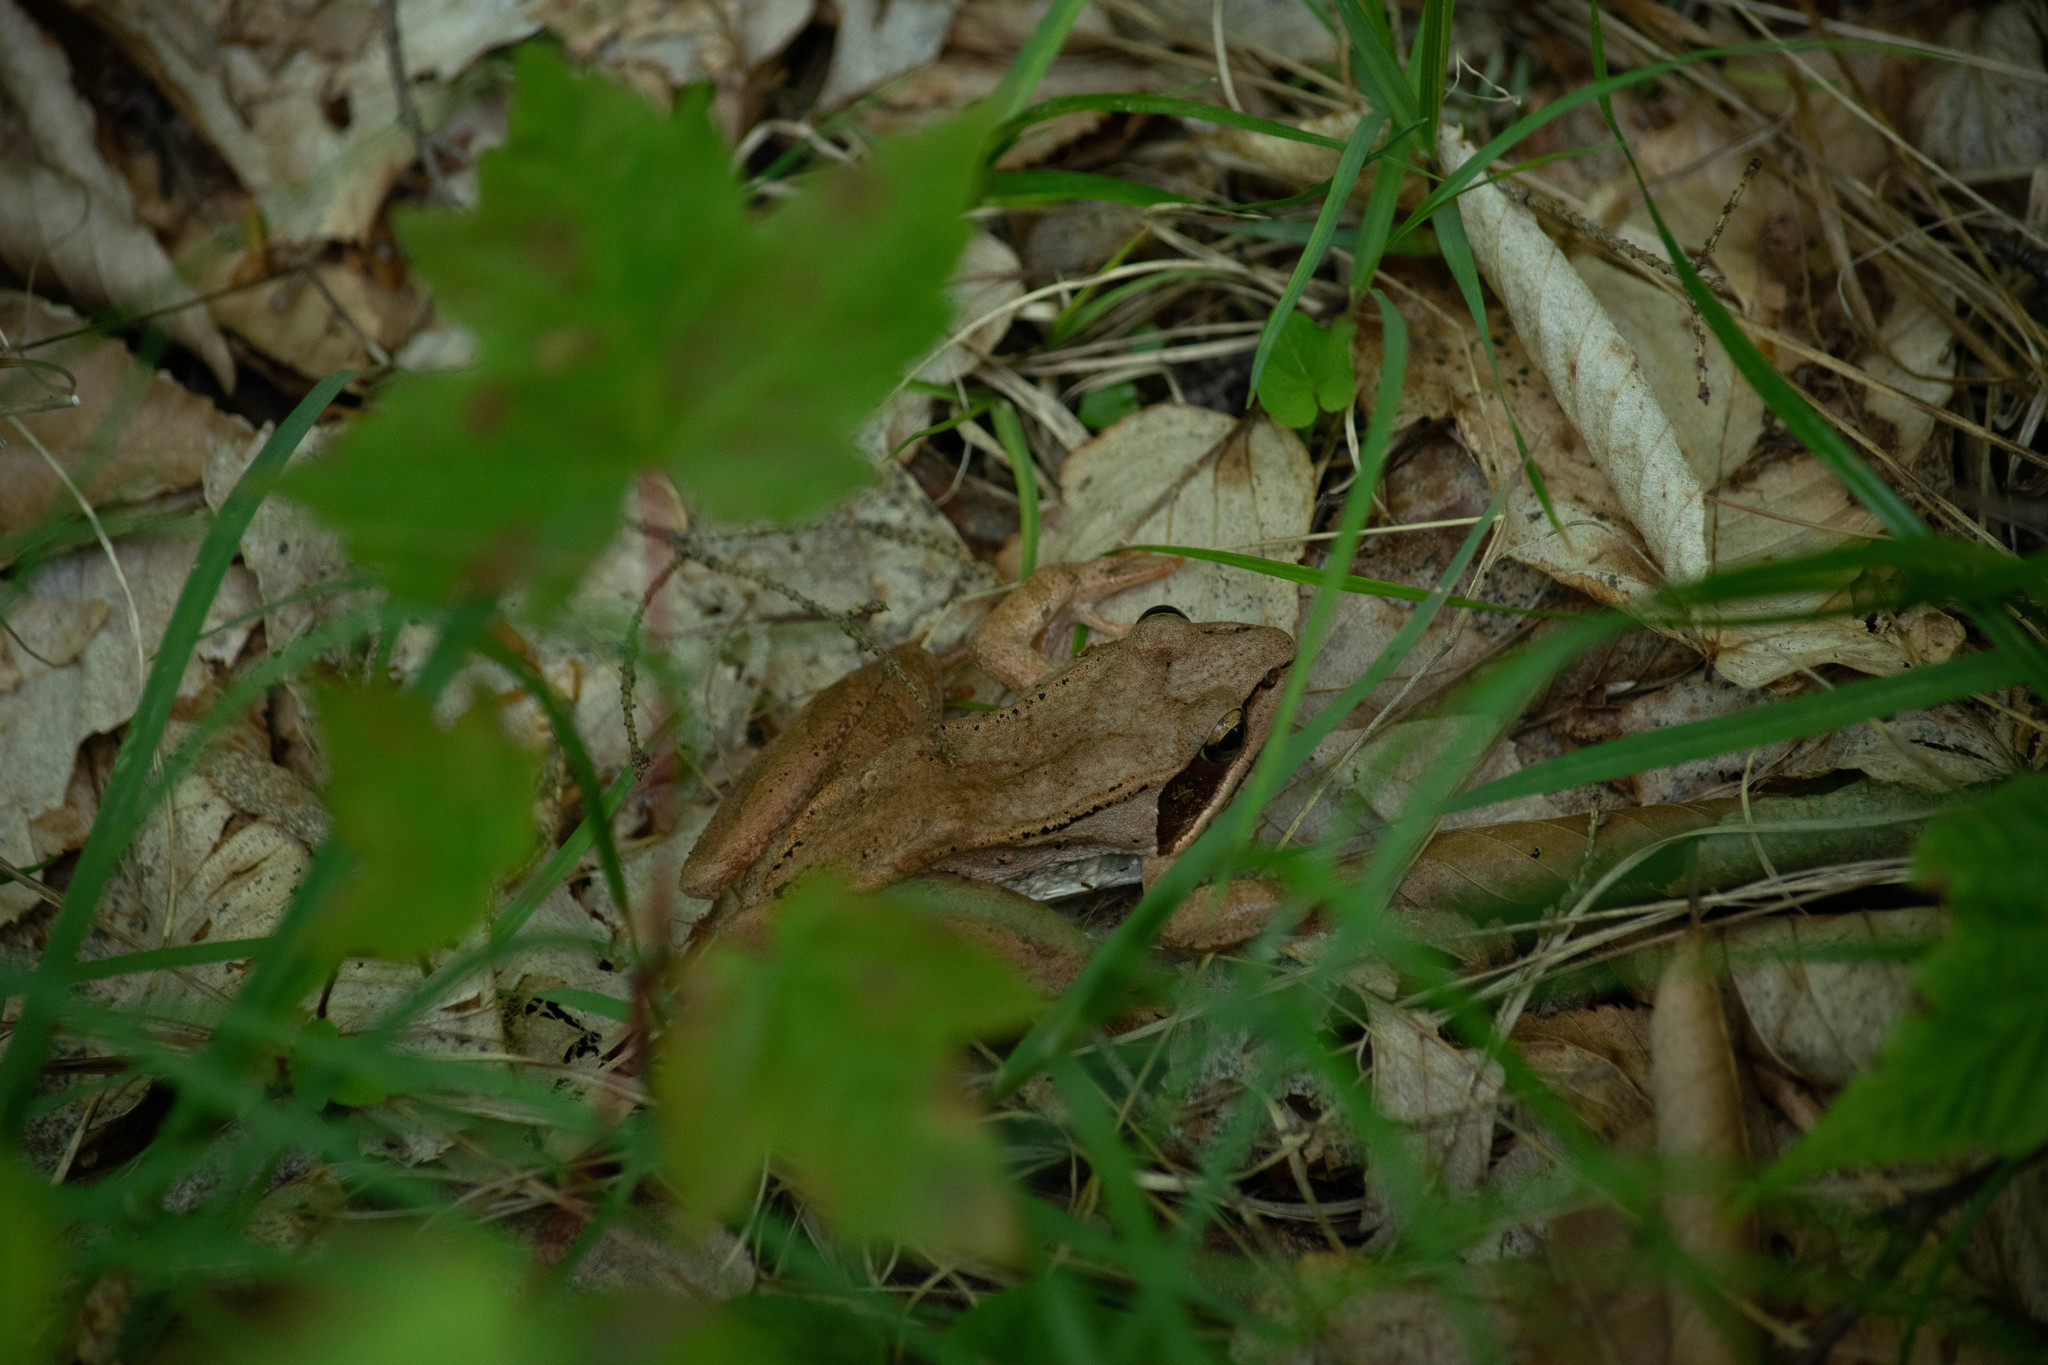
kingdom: Animalia
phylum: Chordata
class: Amphibia
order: Anura
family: Ranidae
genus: Lithobates
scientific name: Lithobates sylvaticus
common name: Wood frog
